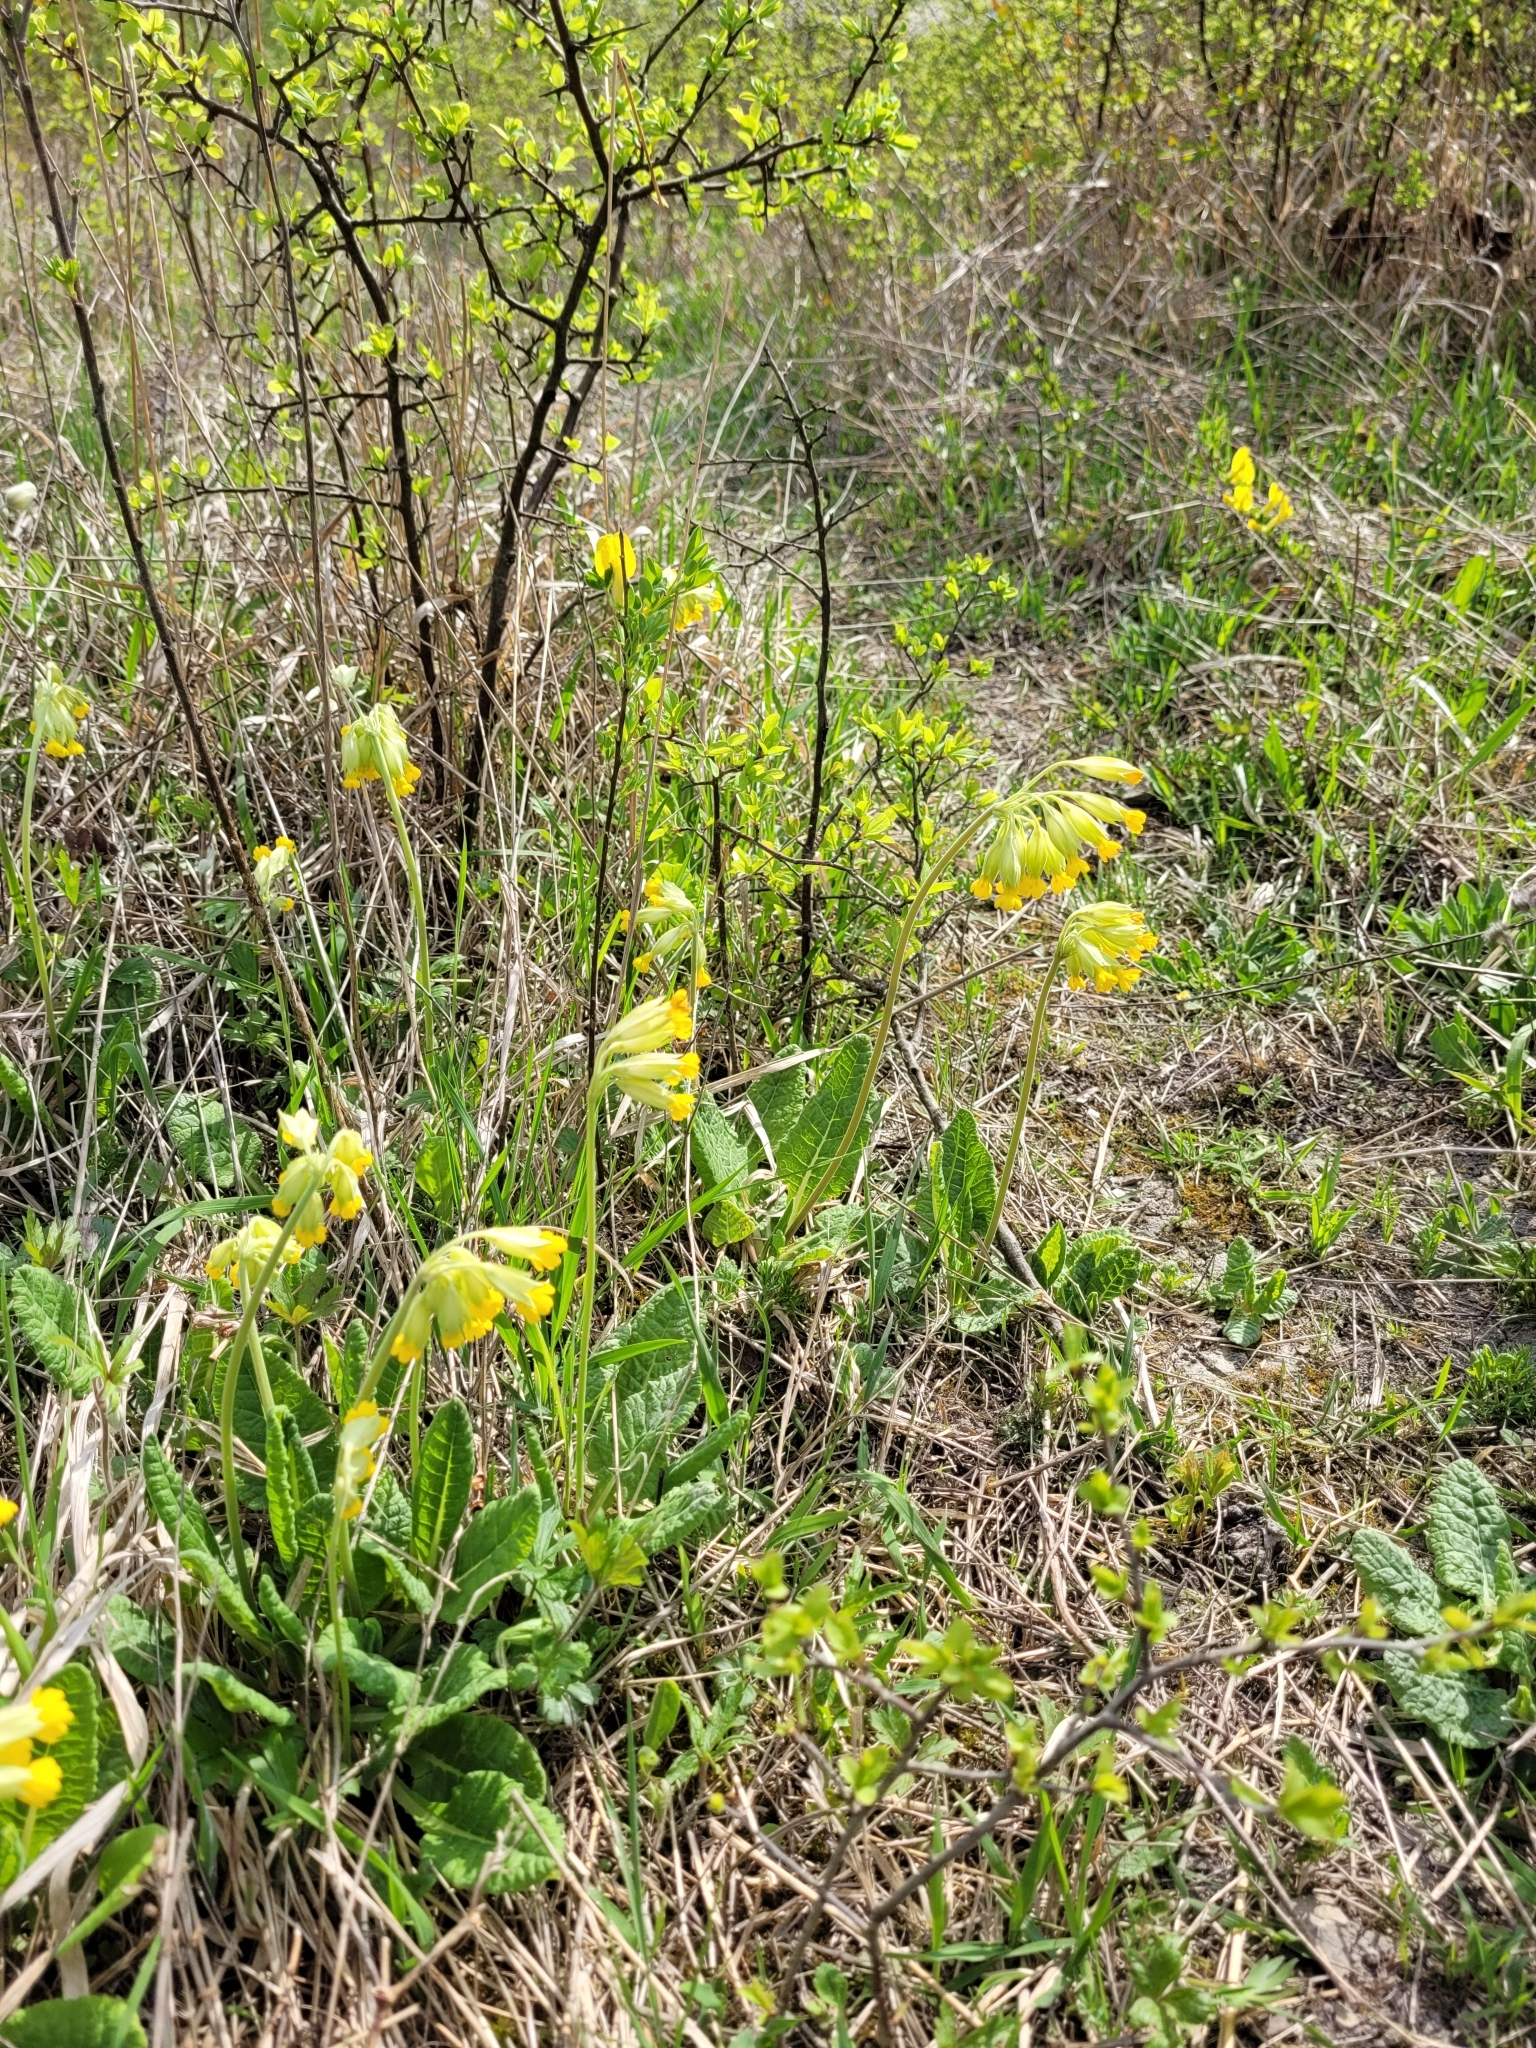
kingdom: Plantae
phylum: Tracheophyta
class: Magnoliopsida
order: Ericales
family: Primulaceae
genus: Primula
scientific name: Primula veris
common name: Cowslip
